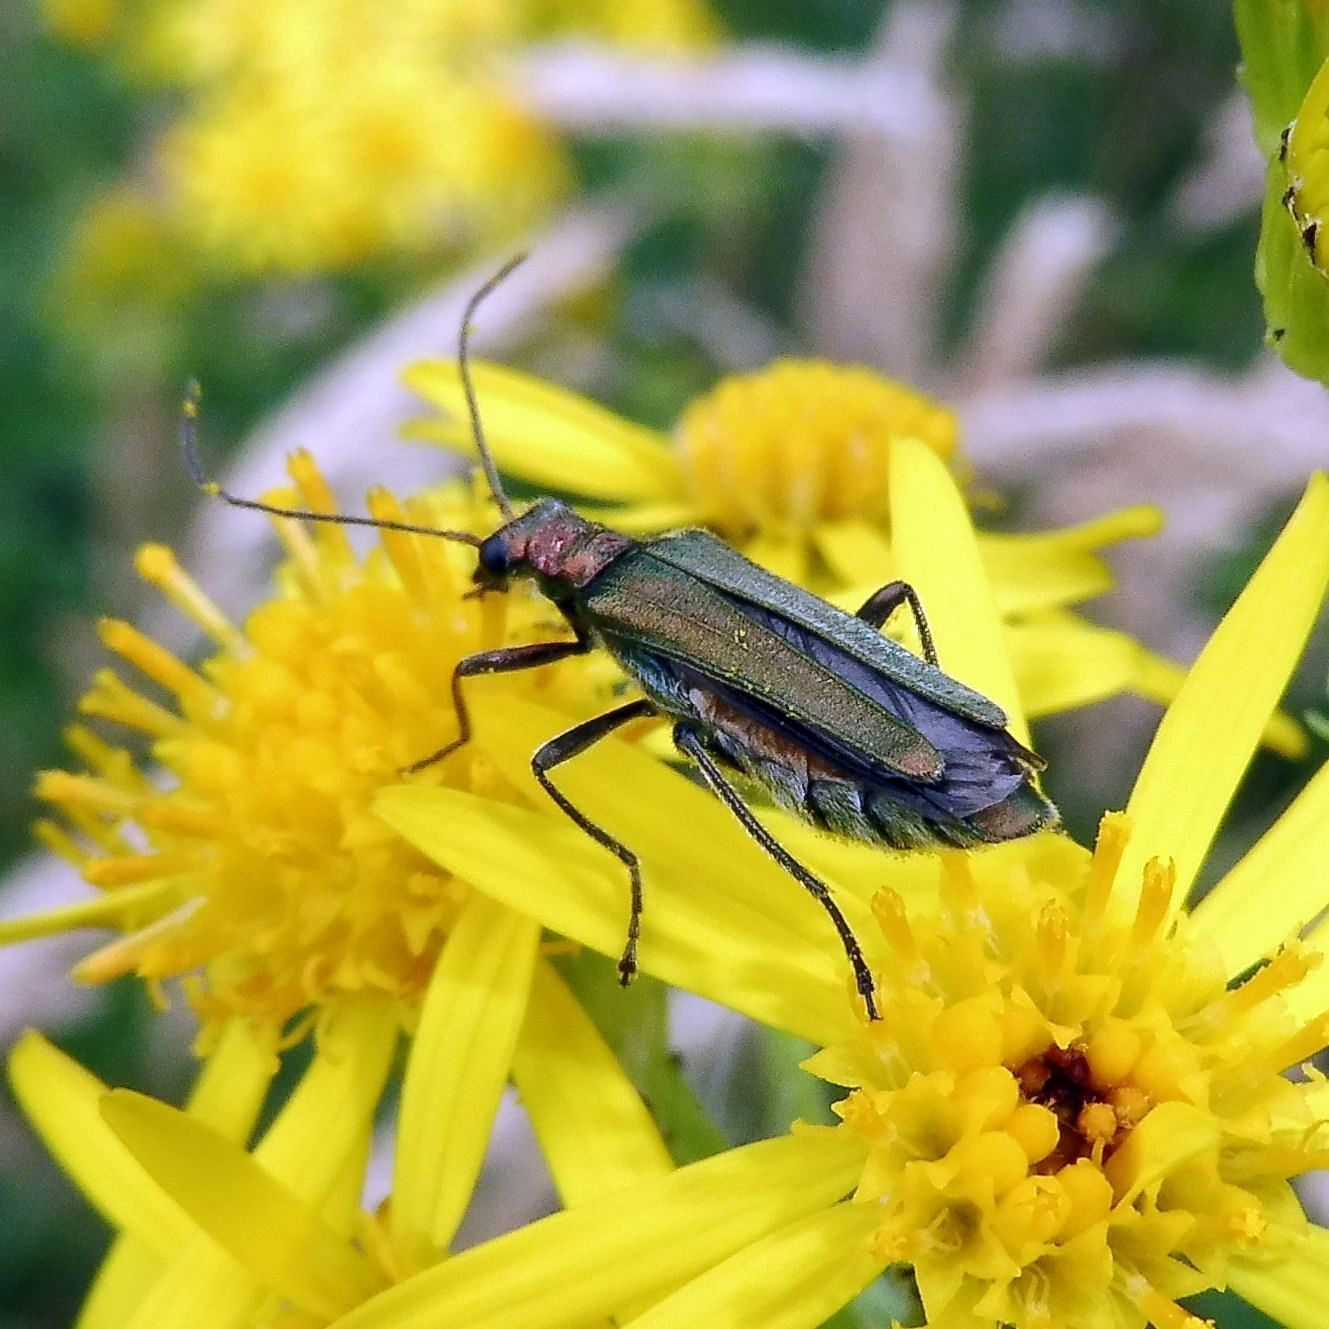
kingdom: Animalia
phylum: Arthropoda
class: Insecta
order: Coleoptera
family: Oedemeridae
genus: Oedemera
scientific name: Oedemera nobilis
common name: Swollen-thighed beetle
